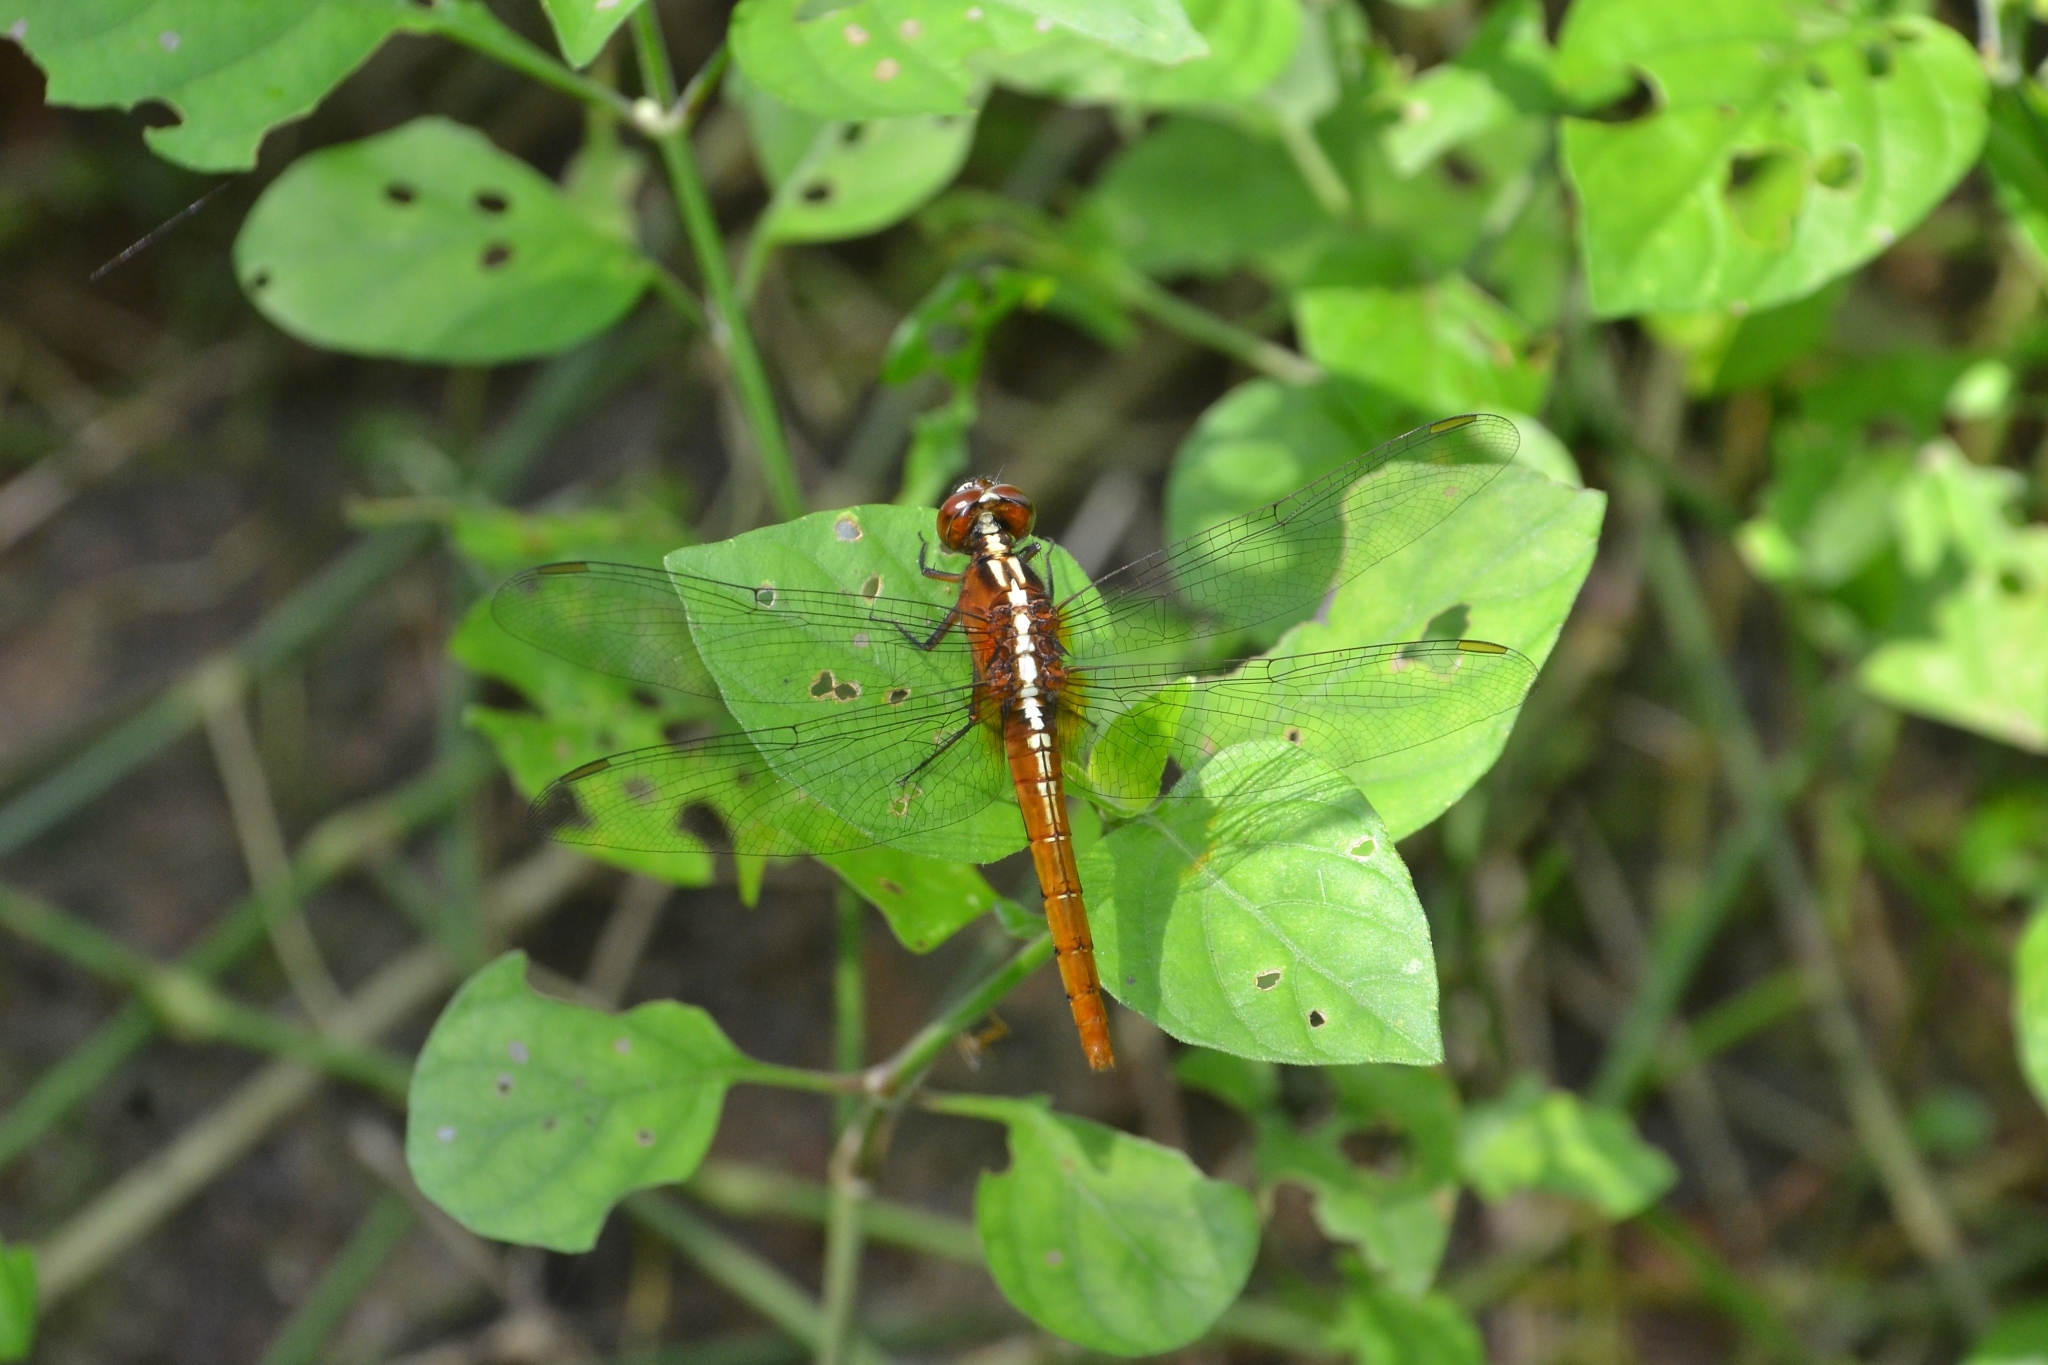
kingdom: Animalia
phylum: Arthropoda
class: Insecta
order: Odonata
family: Libellulidae
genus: Rhodothemis
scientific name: Rhodothemis rufa
